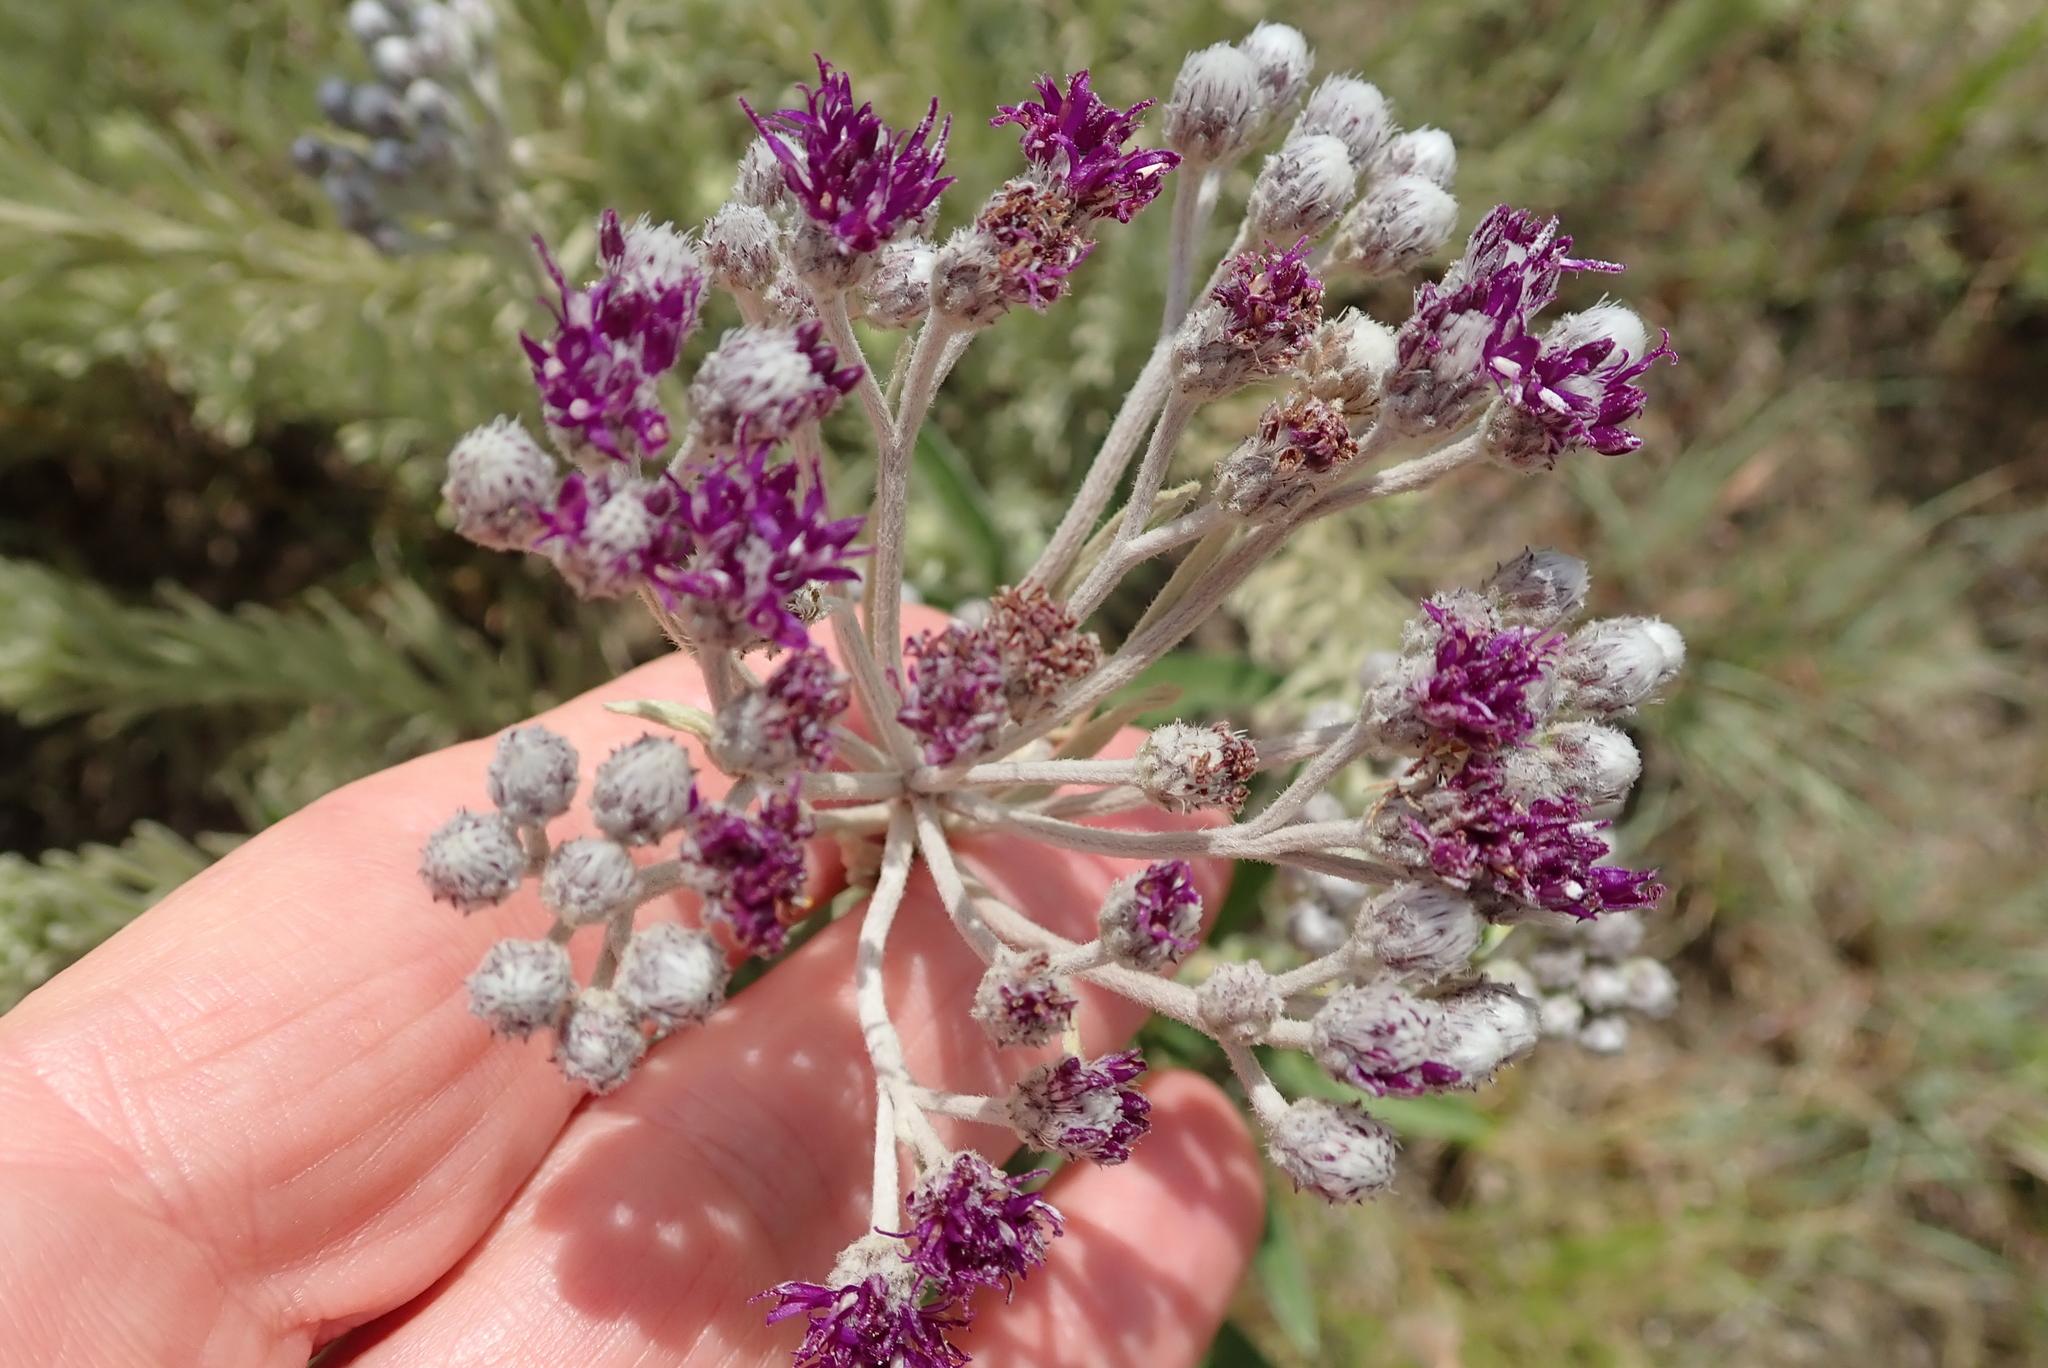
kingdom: Plantae
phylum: Tracheophyta
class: Magnoliopsida
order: Asterales
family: Asteraceae
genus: Hilliardiella
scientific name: Hilliardiella aristata
